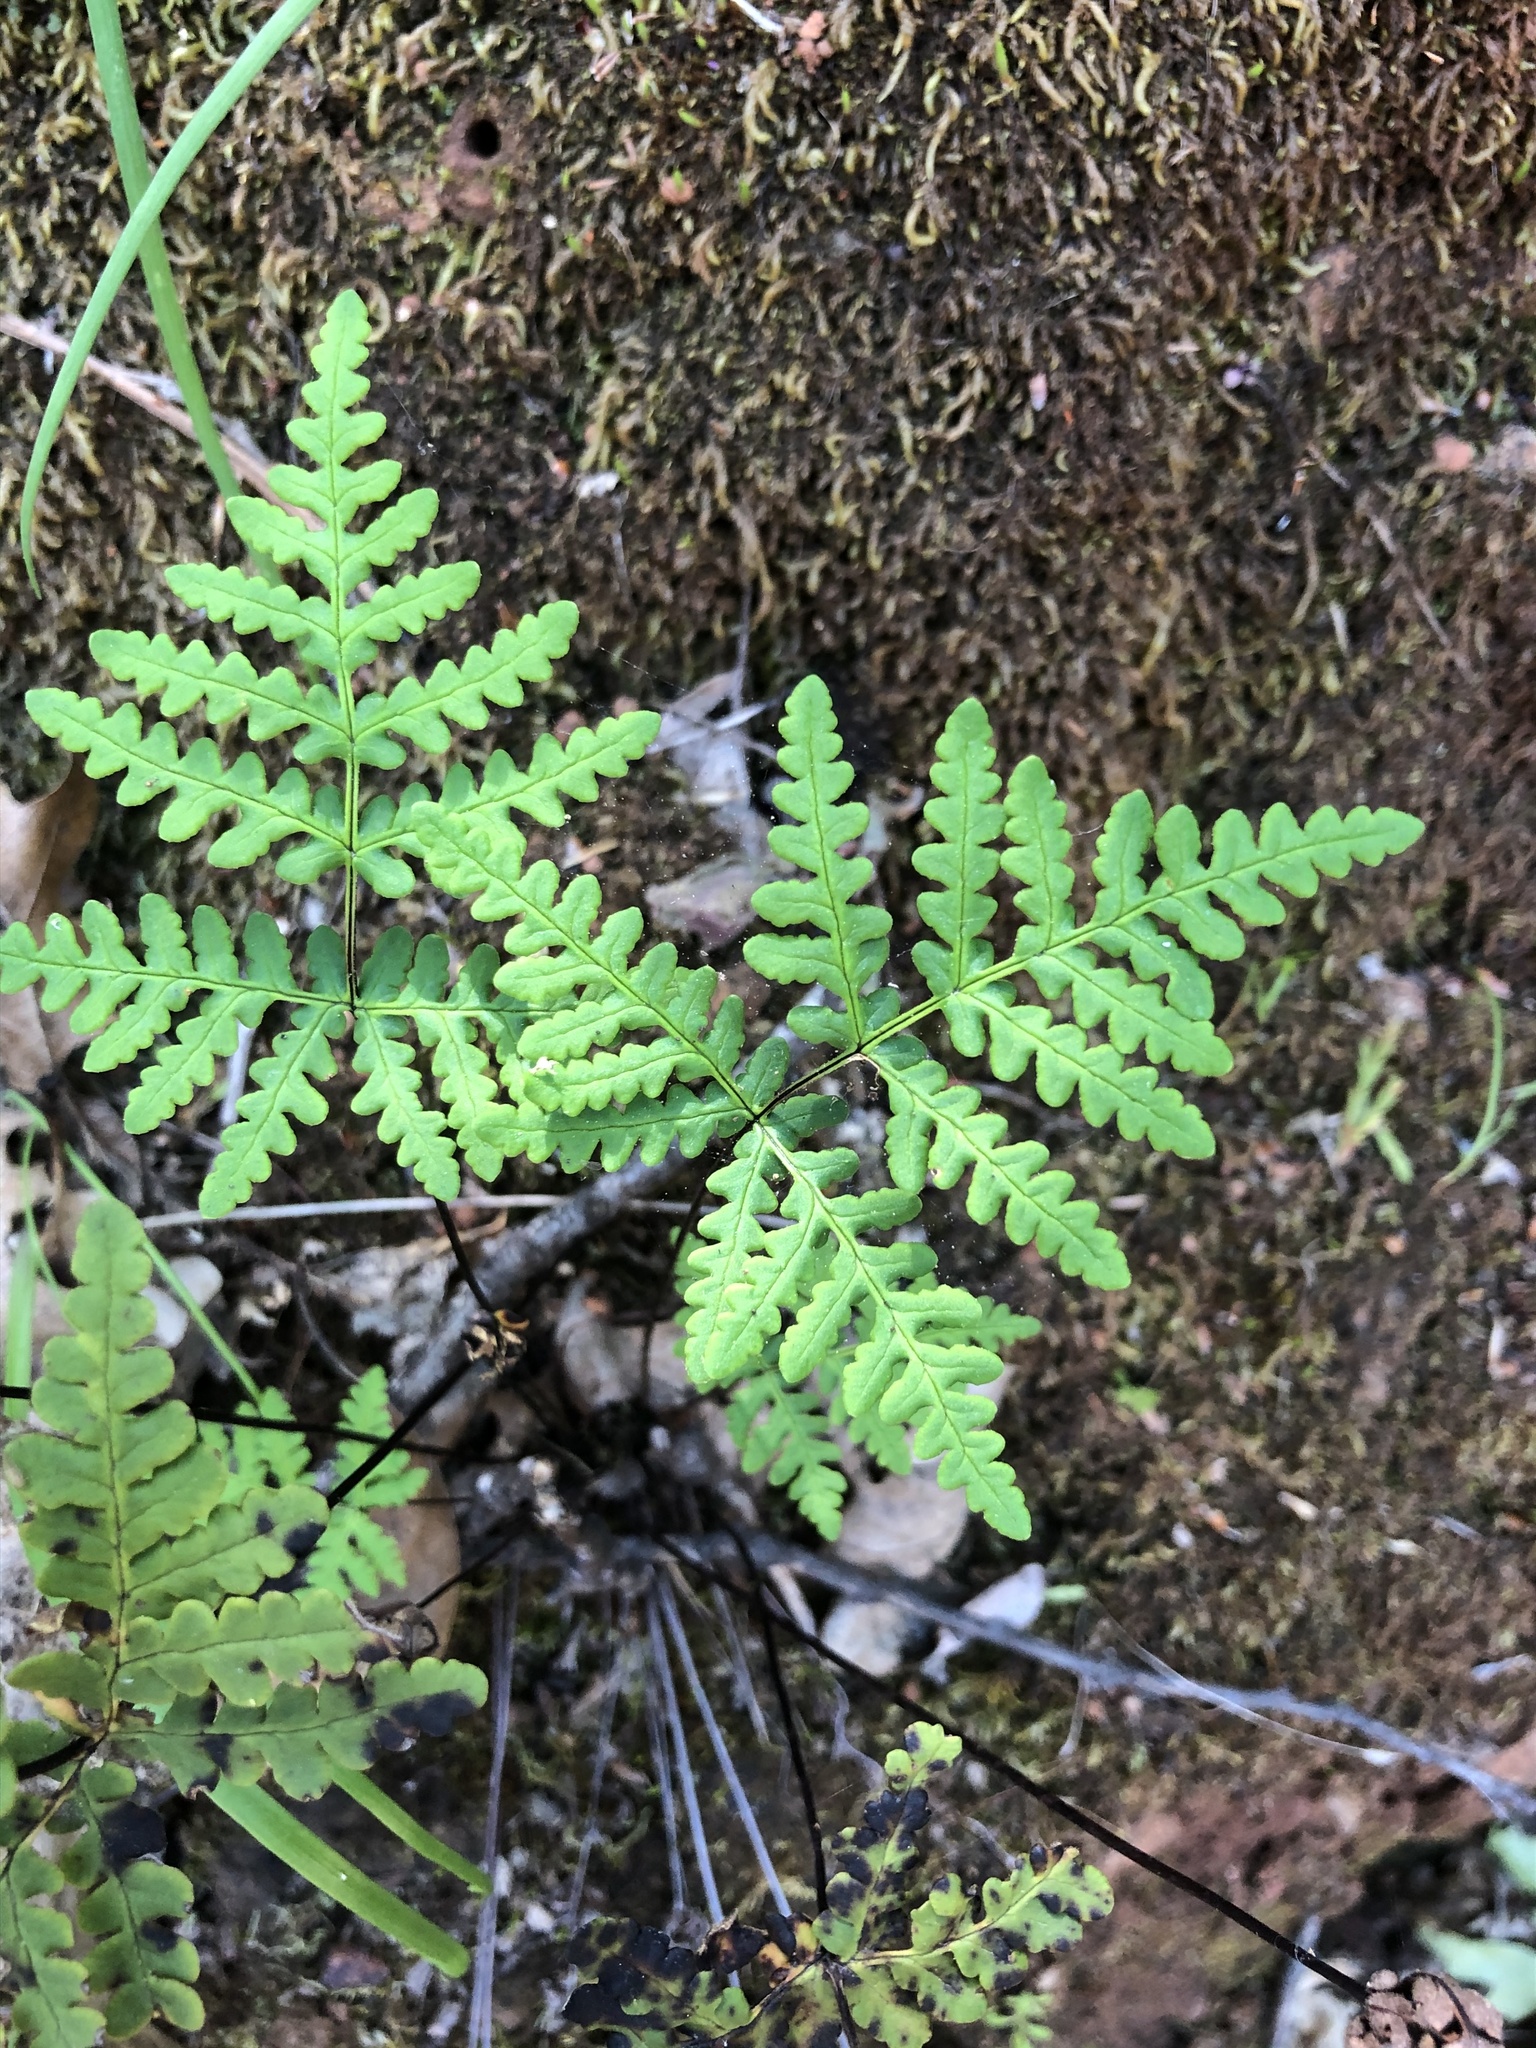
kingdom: Plantae
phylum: Tracheophyta
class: Polypodiopsida
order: Polypodiales
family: Pteridaceae
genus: Pentagramma
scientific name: Pentagramma triangularis
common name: Gold fern
